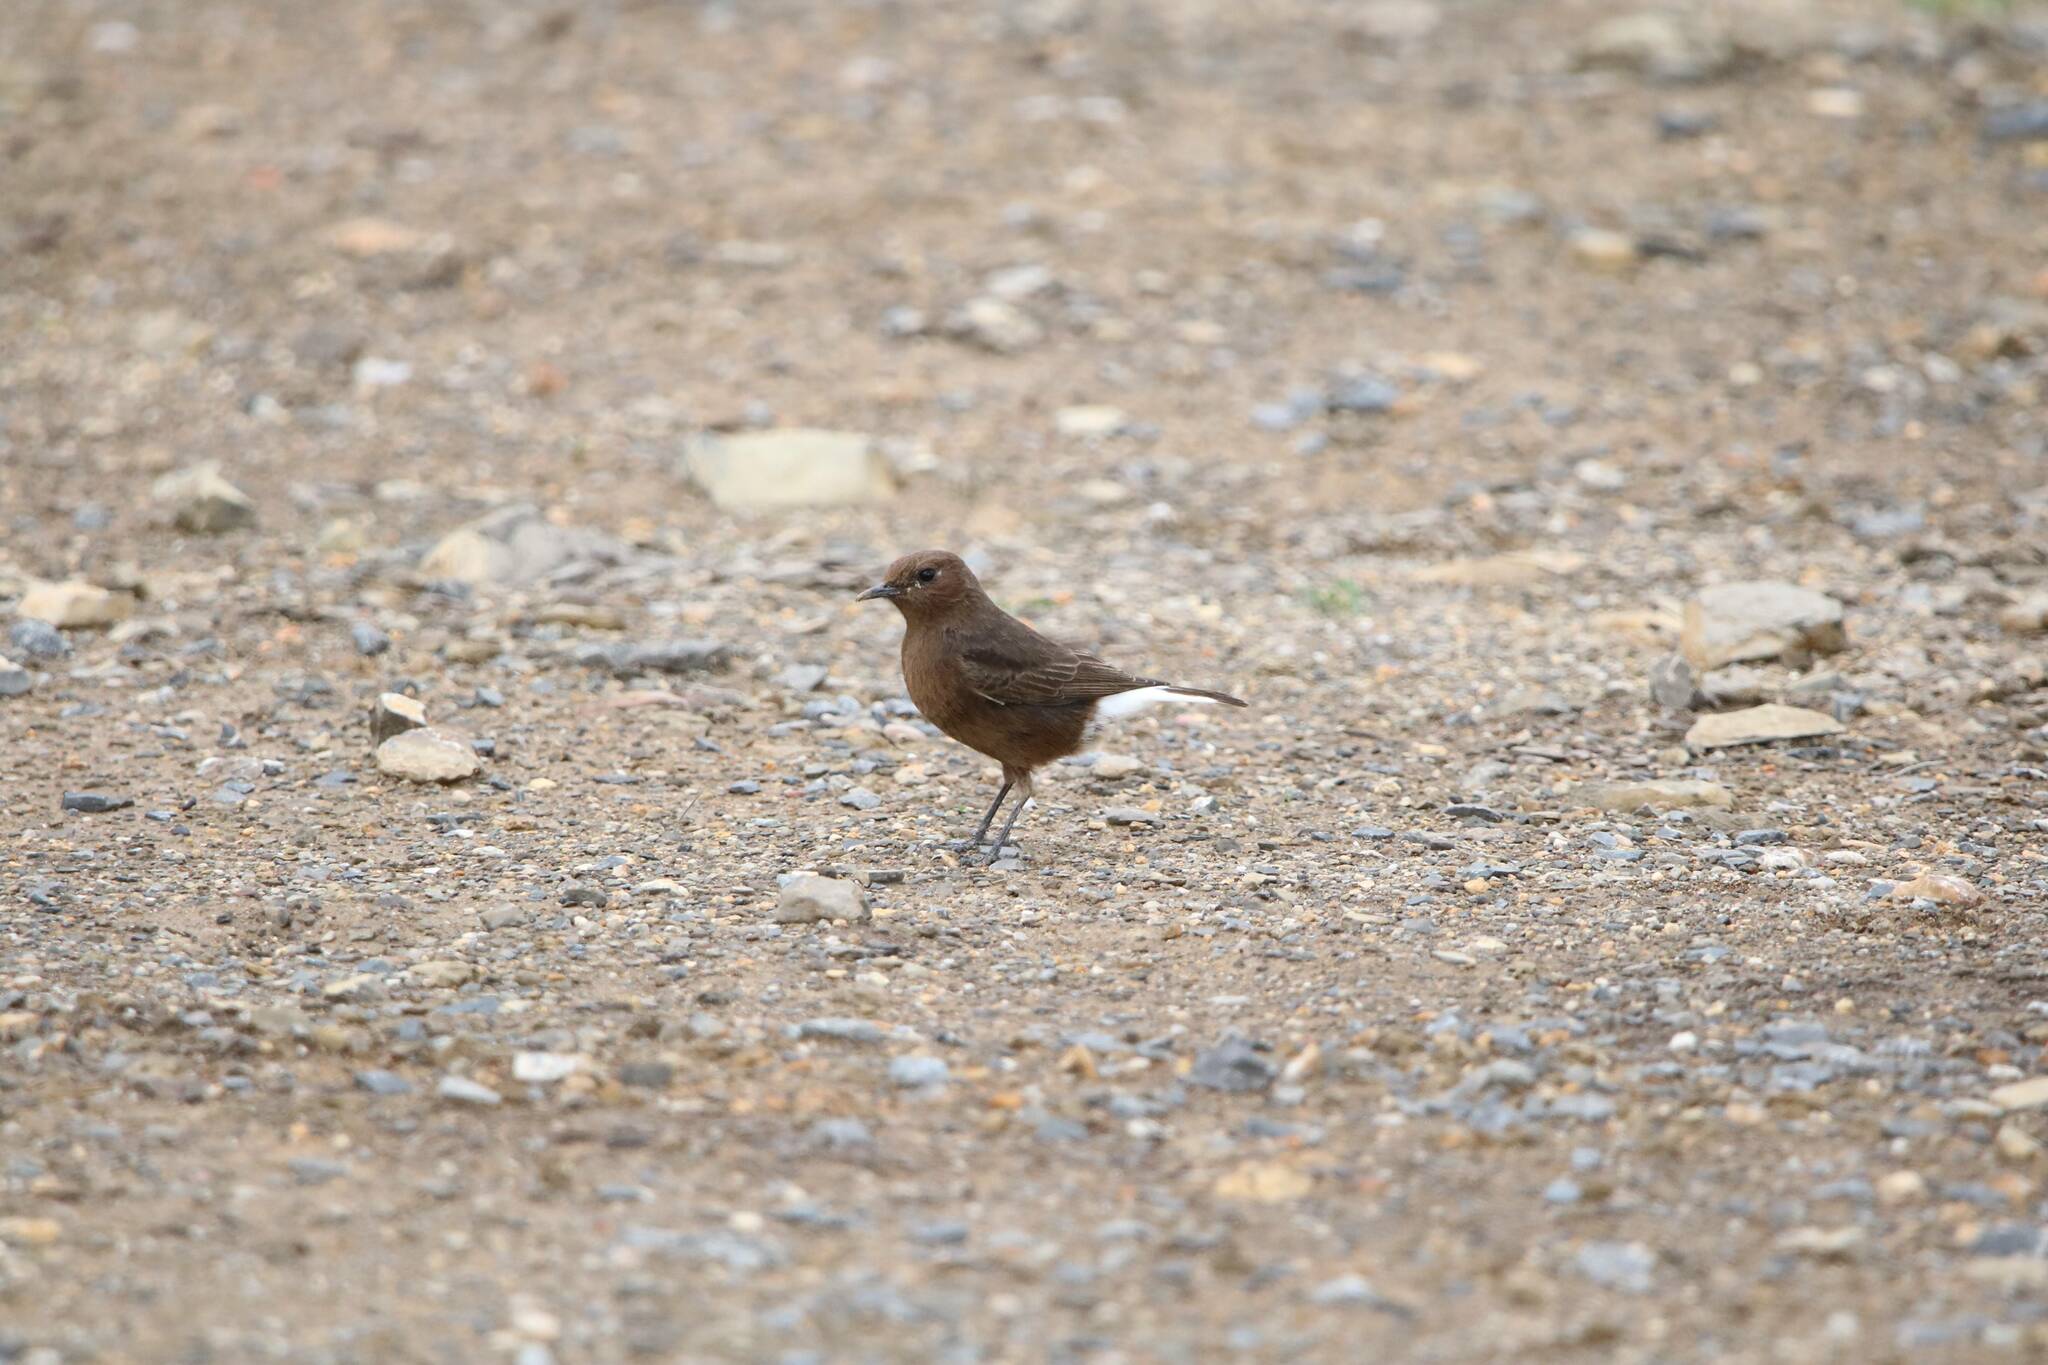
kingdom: Animalia
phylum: Chordata
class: Aves
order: Passeriformes
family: Muscicapidae
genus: Oenanthe
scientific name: Oenanthe leucura
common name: Black wheatear
